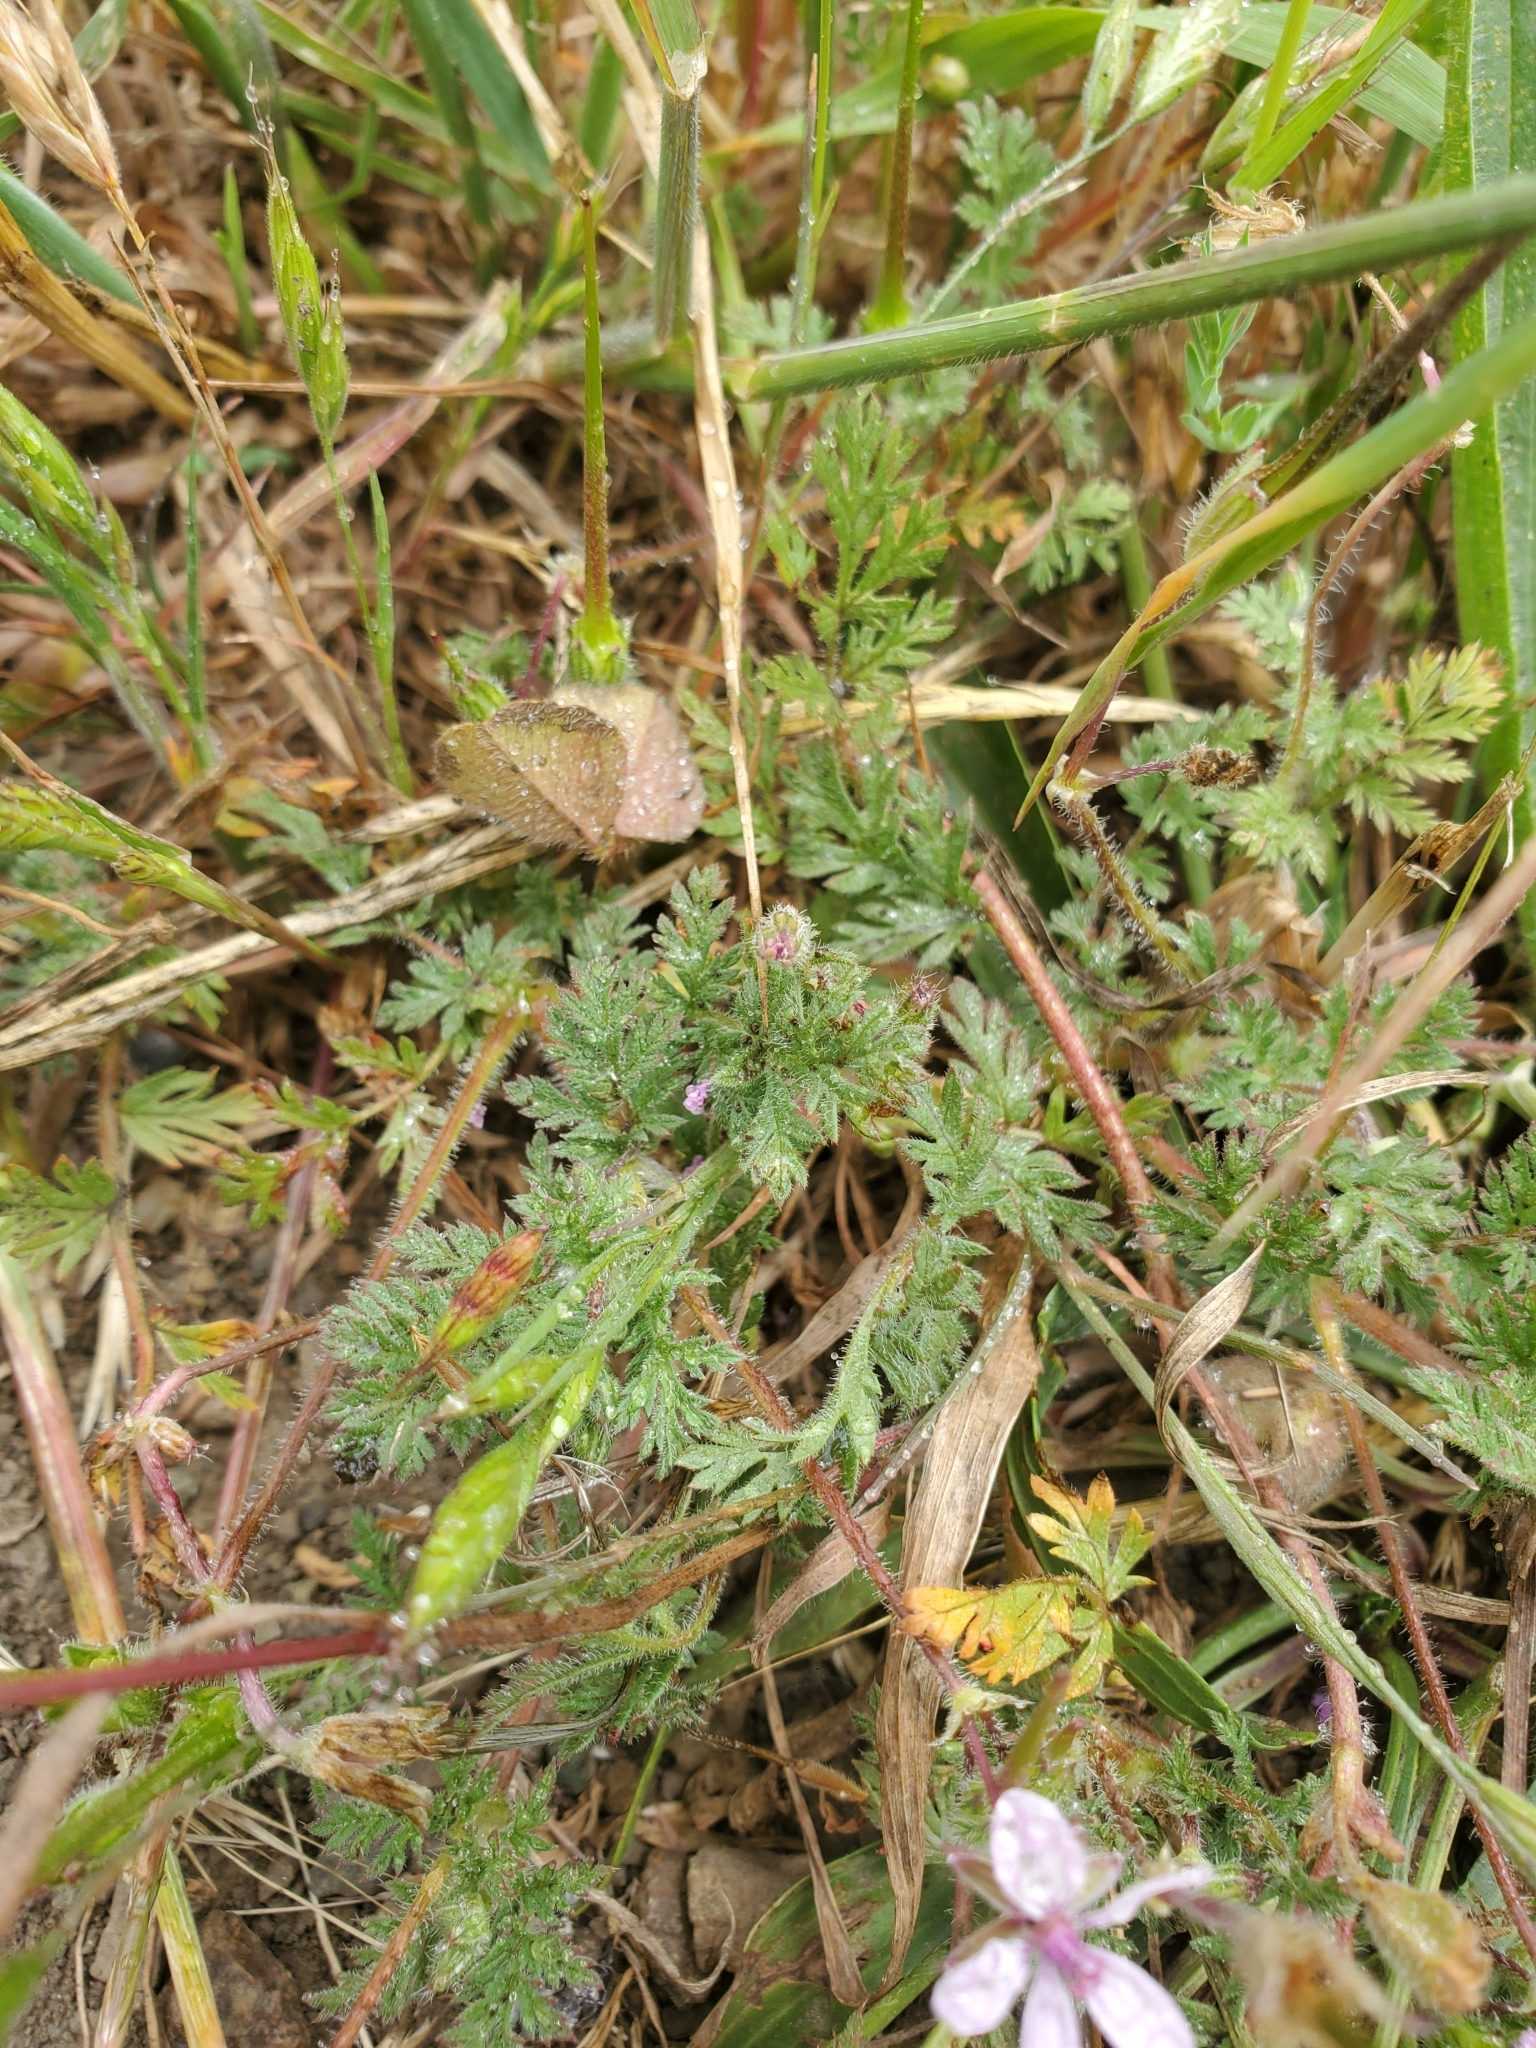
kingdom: Plantae
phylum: Tracheophyta
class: Magnoliopsida
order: Geraniales
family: Geraniaceae
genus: Erodium
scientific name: Erodium cicutarium
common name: Common stork's-bill
